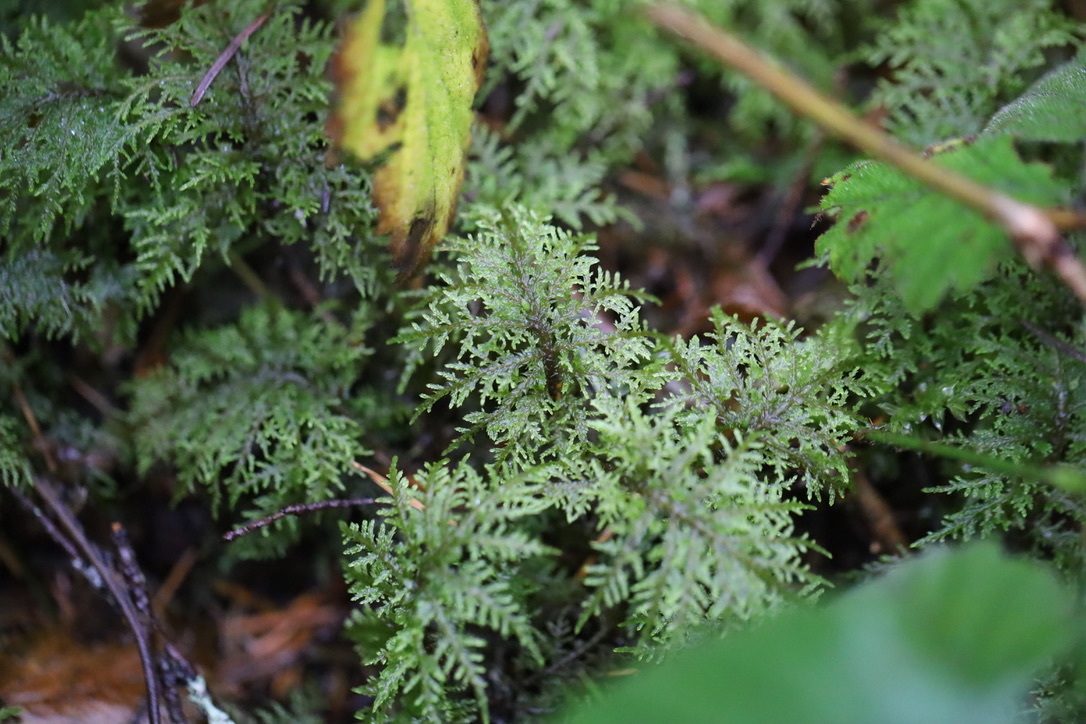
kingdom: Plantae
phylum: Bryophyta
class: Bryopsida
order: Hypnales
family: Hylocomiaceae
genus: Hylocomium
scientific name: Hylocomium splendens
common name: Stairstep moss
